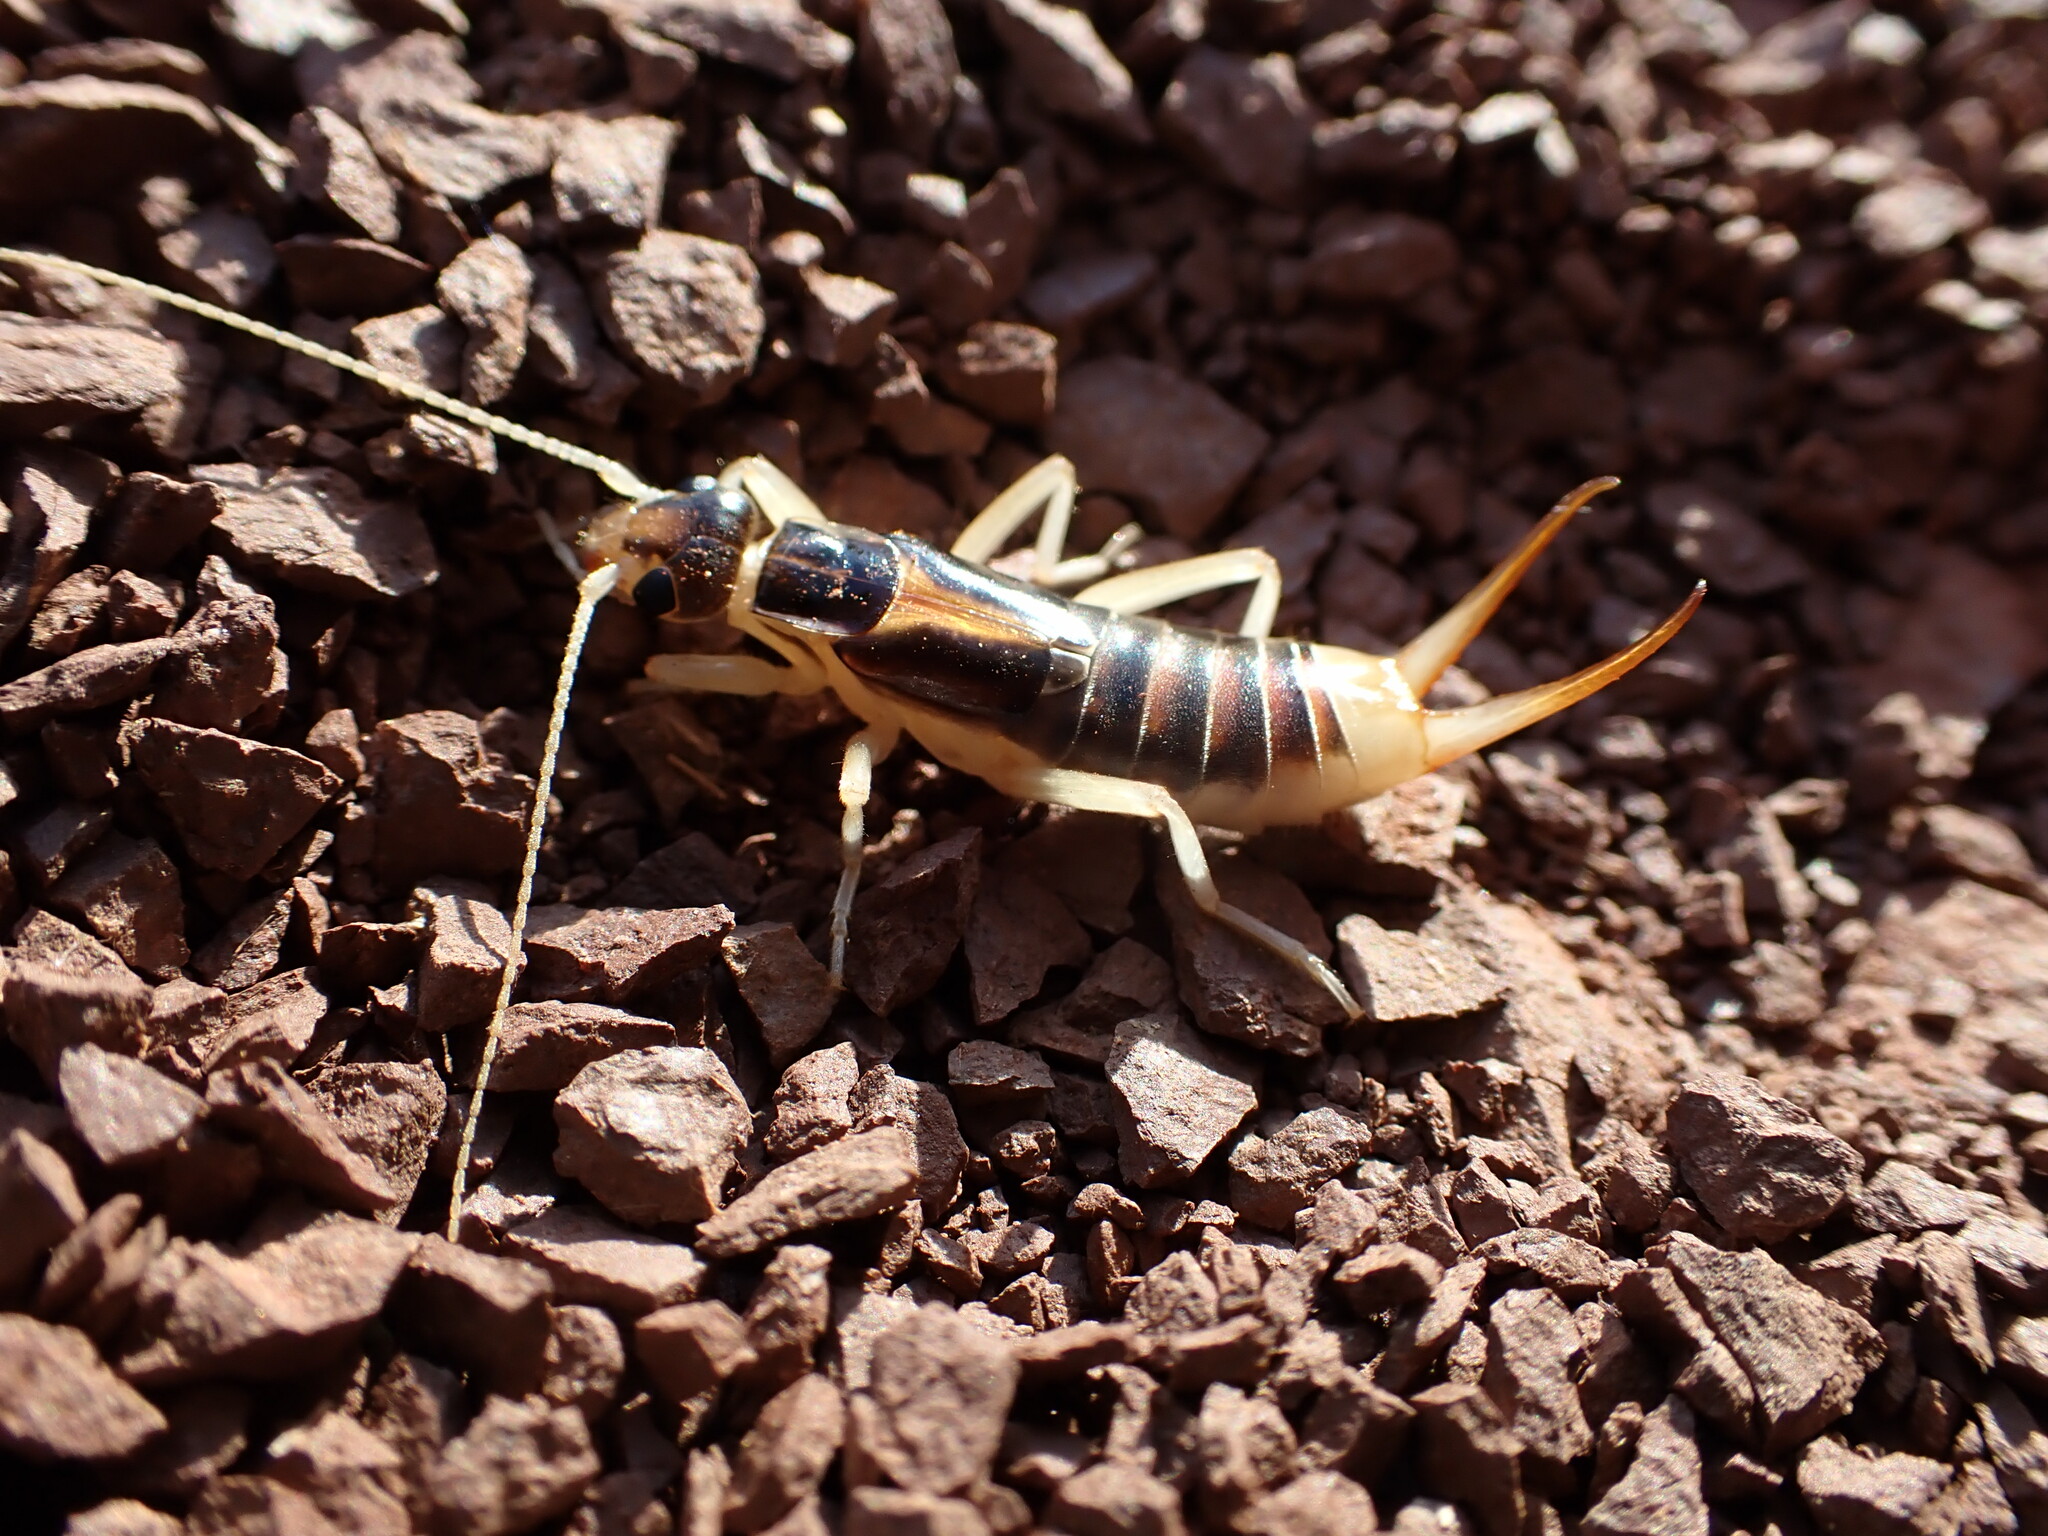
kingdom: Animalia
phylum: Arthropoda
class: Insecta
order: Dermaptera
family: Labiduridae
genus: Labidura
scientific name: Labidura riparia
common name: Striped earwig
